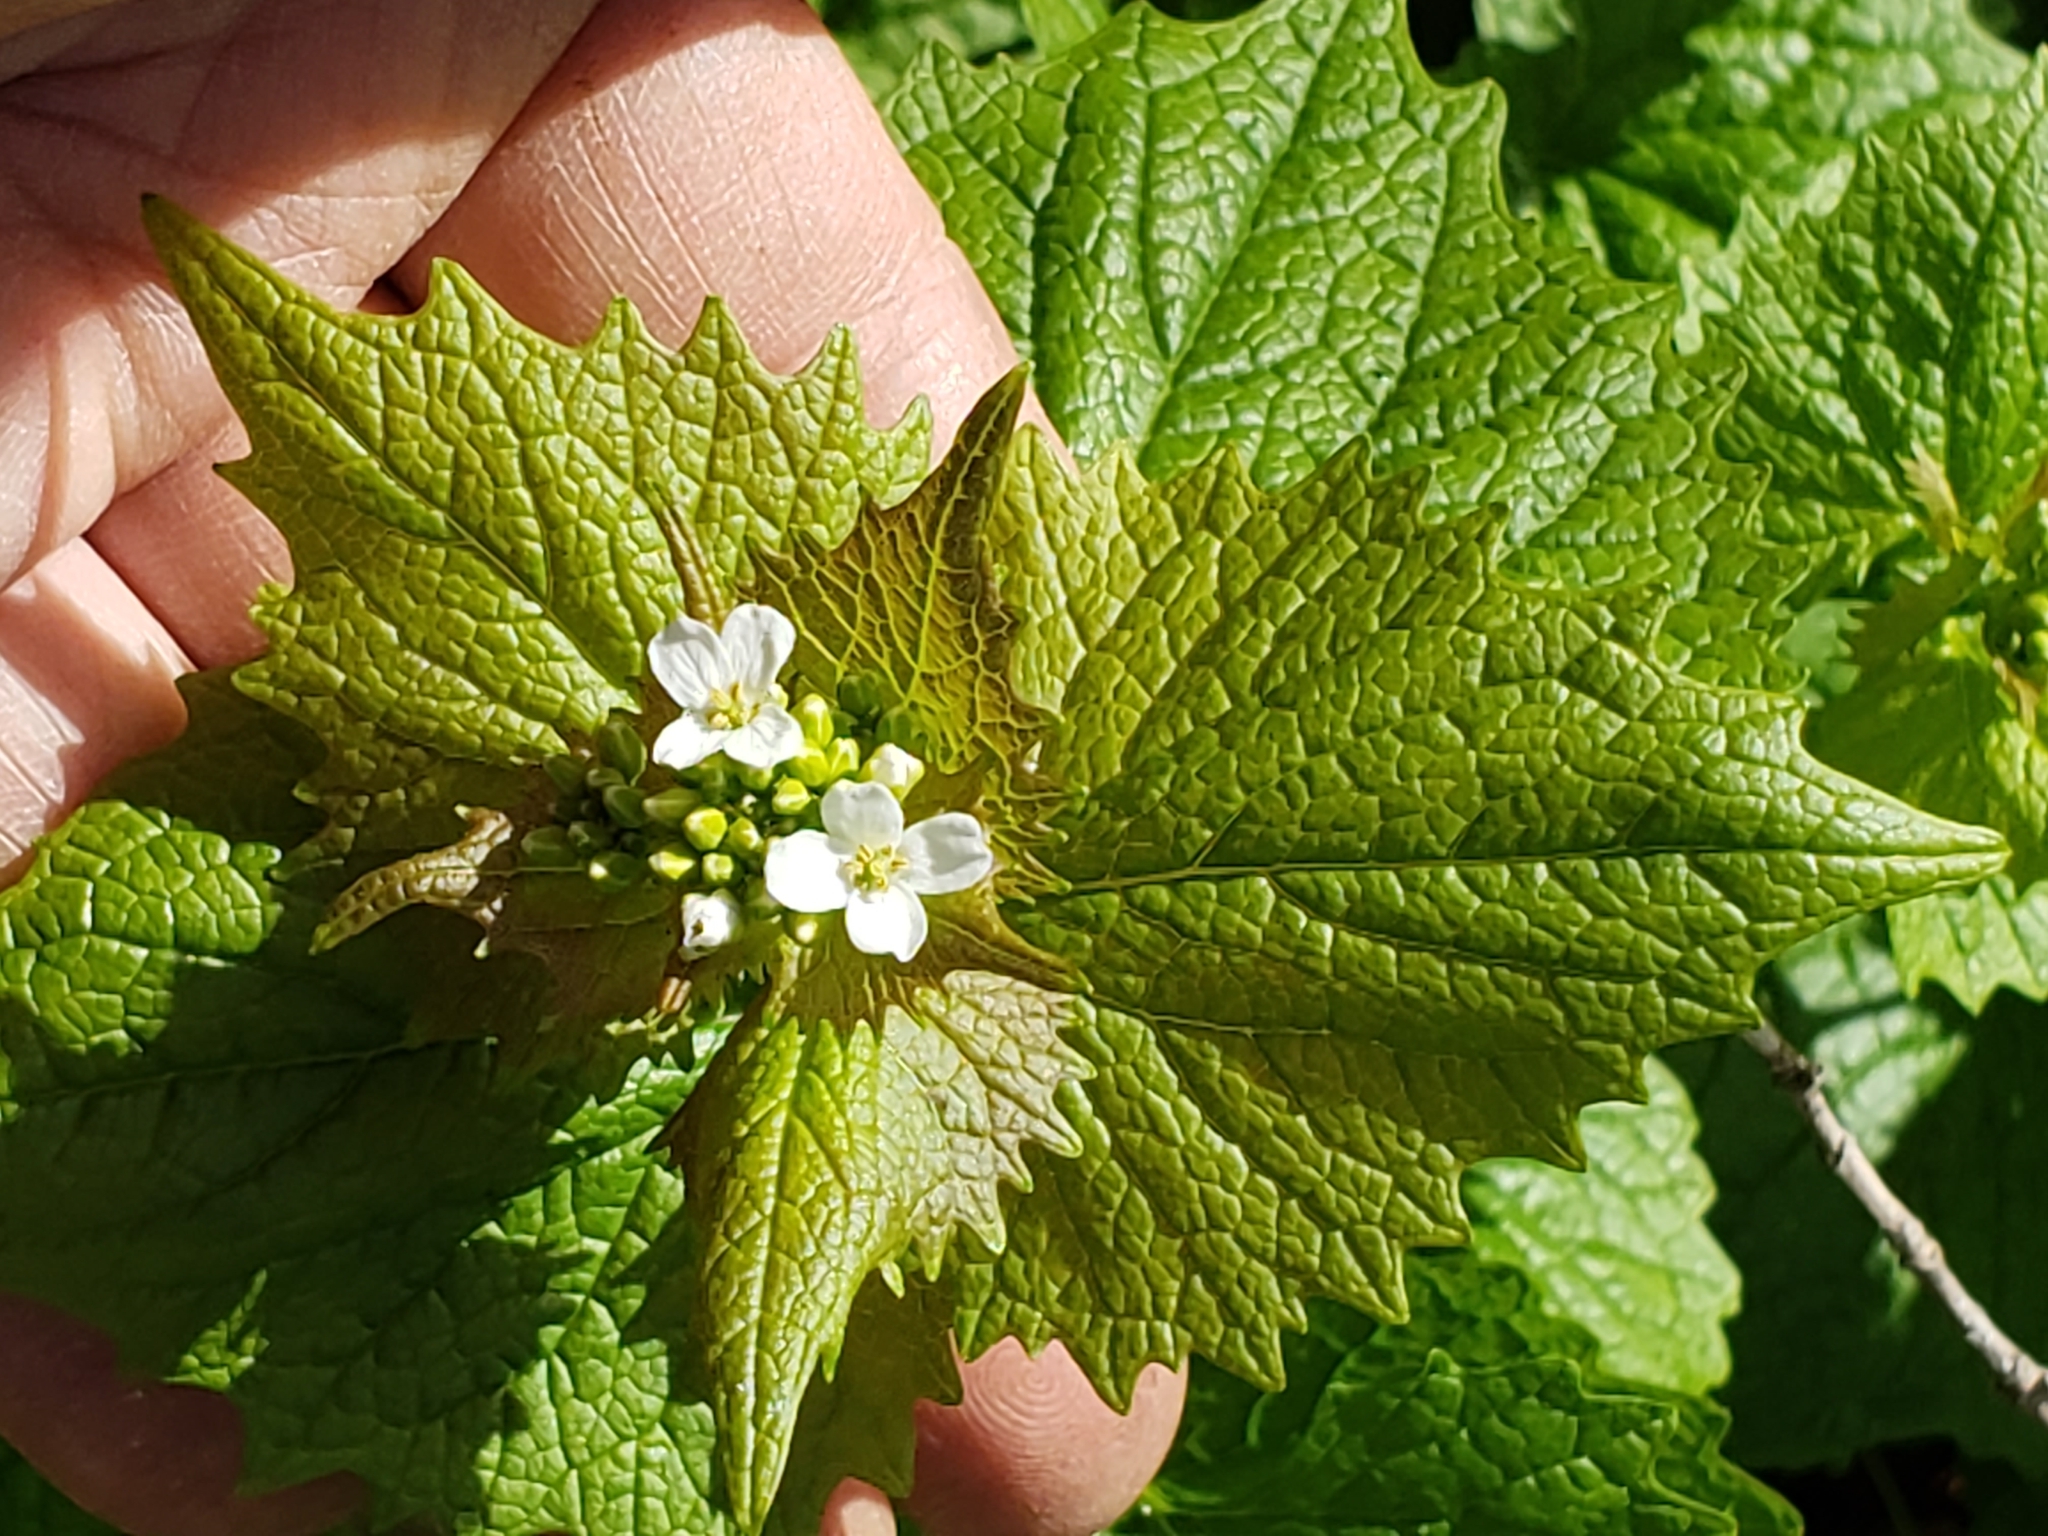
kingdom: Plantae
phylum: Tracheophyta
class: Magnoliopsida
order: Brassicales
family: Brassicaceae
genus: Alliaria
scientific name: Alliaria petiolata
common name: Garlic mustard
